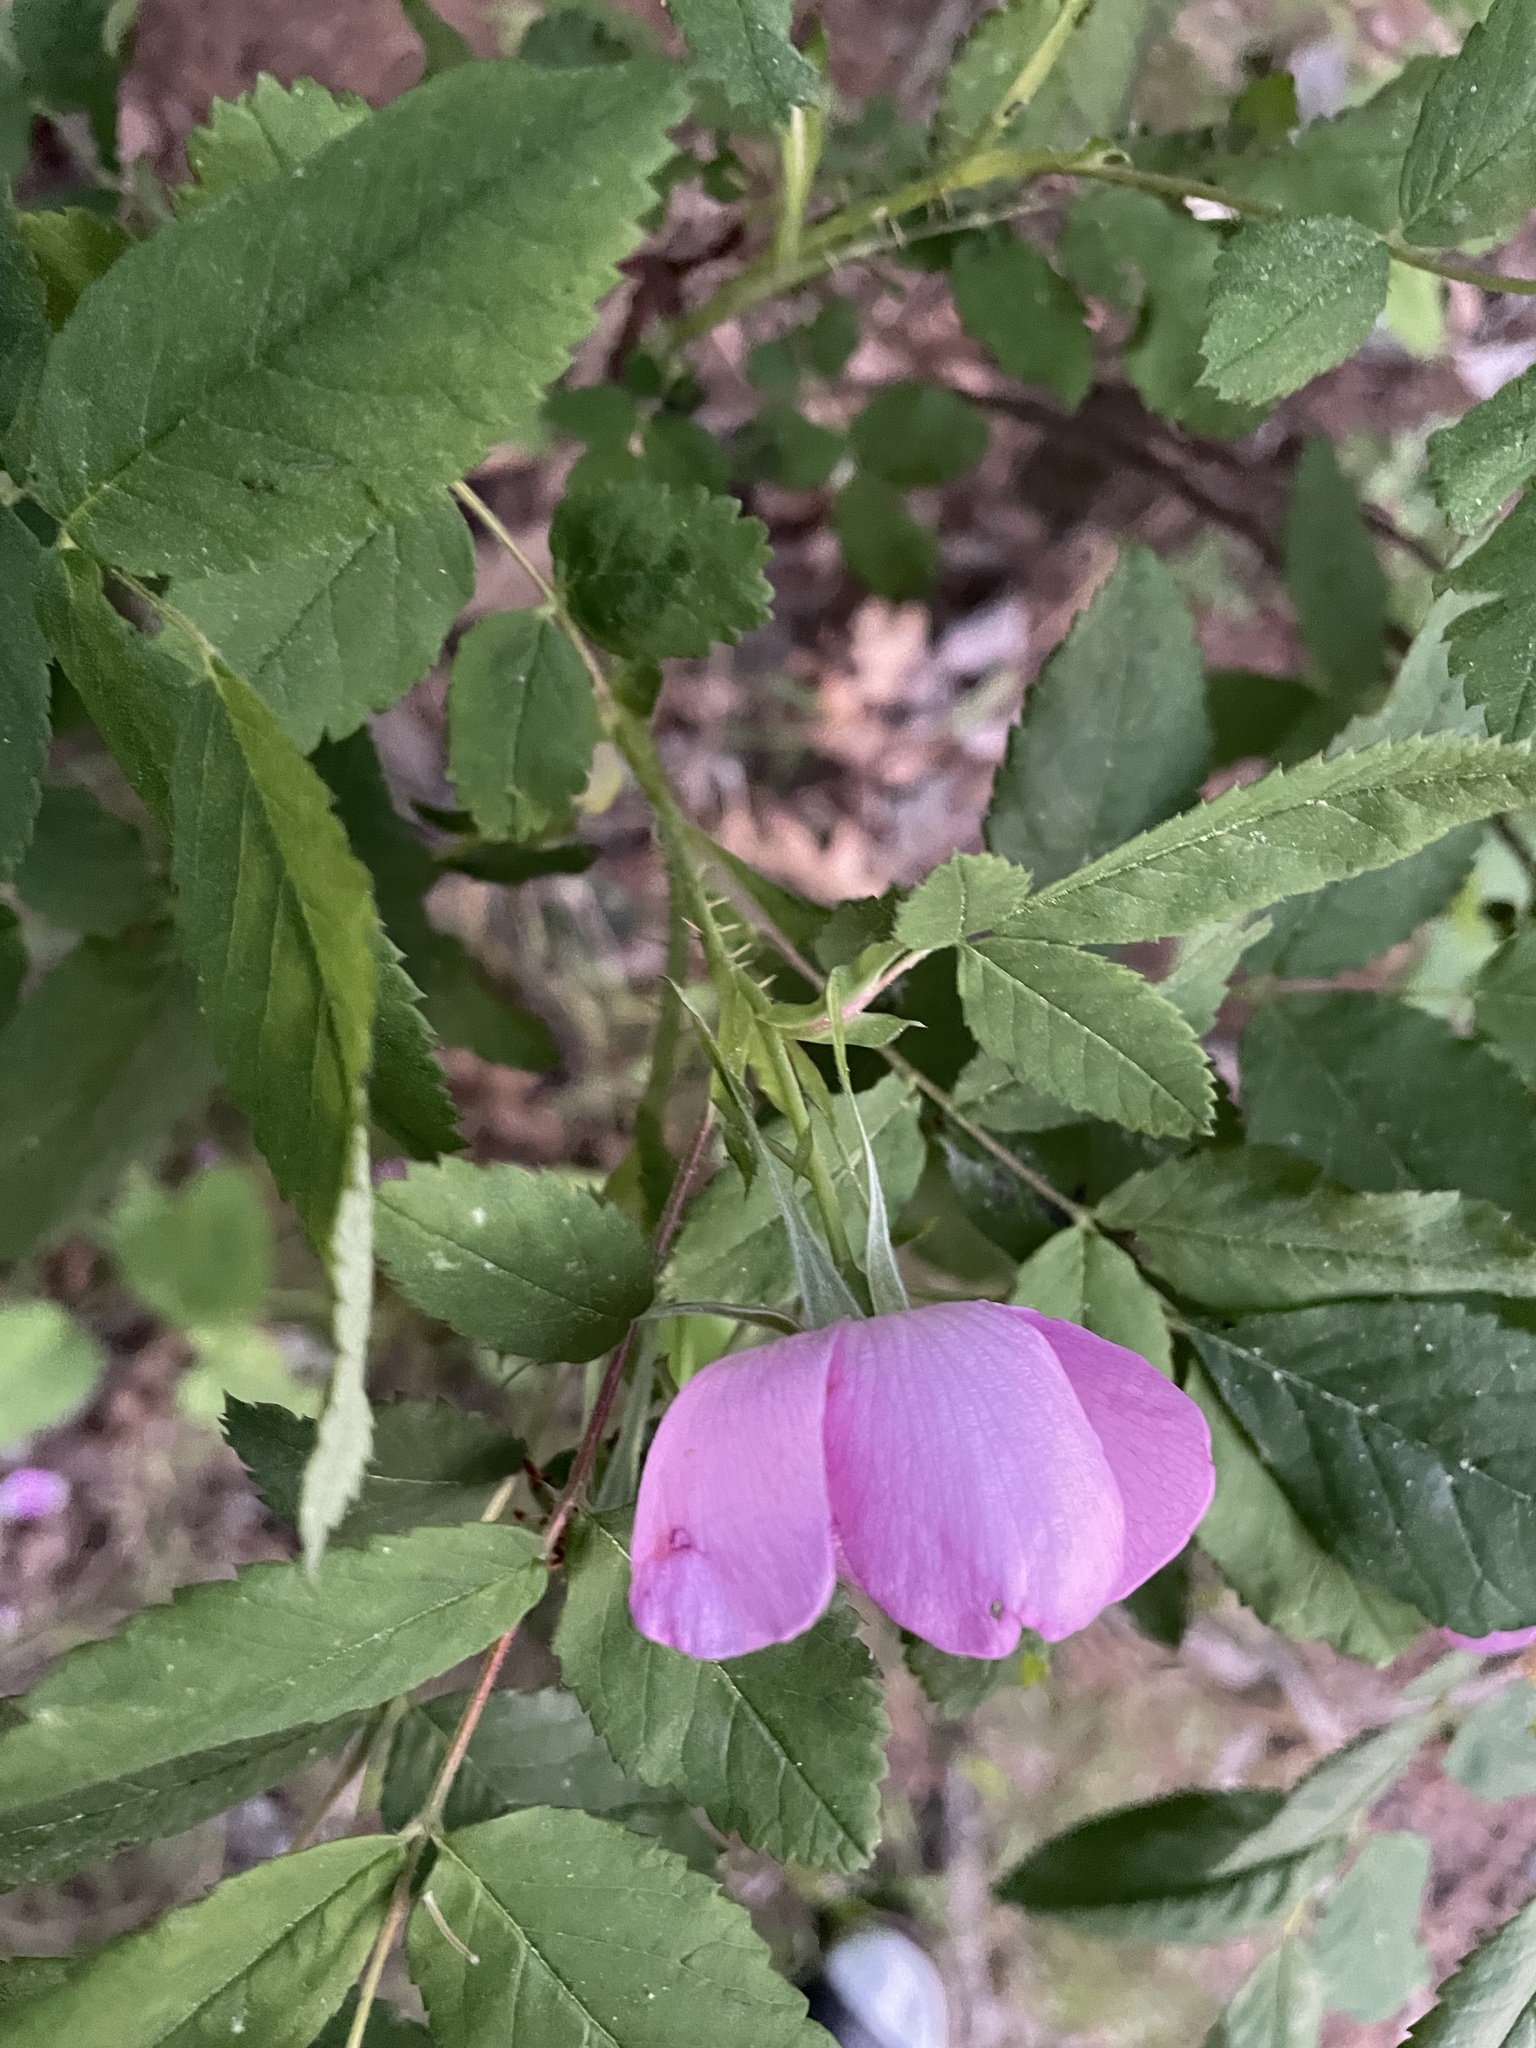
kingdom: Plantae
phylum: Tracheophyta
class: Magnoliopsida
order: Rosales
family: Rosaceae
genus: Rosa
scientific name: Rosa acicularis
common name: Prickly rose
